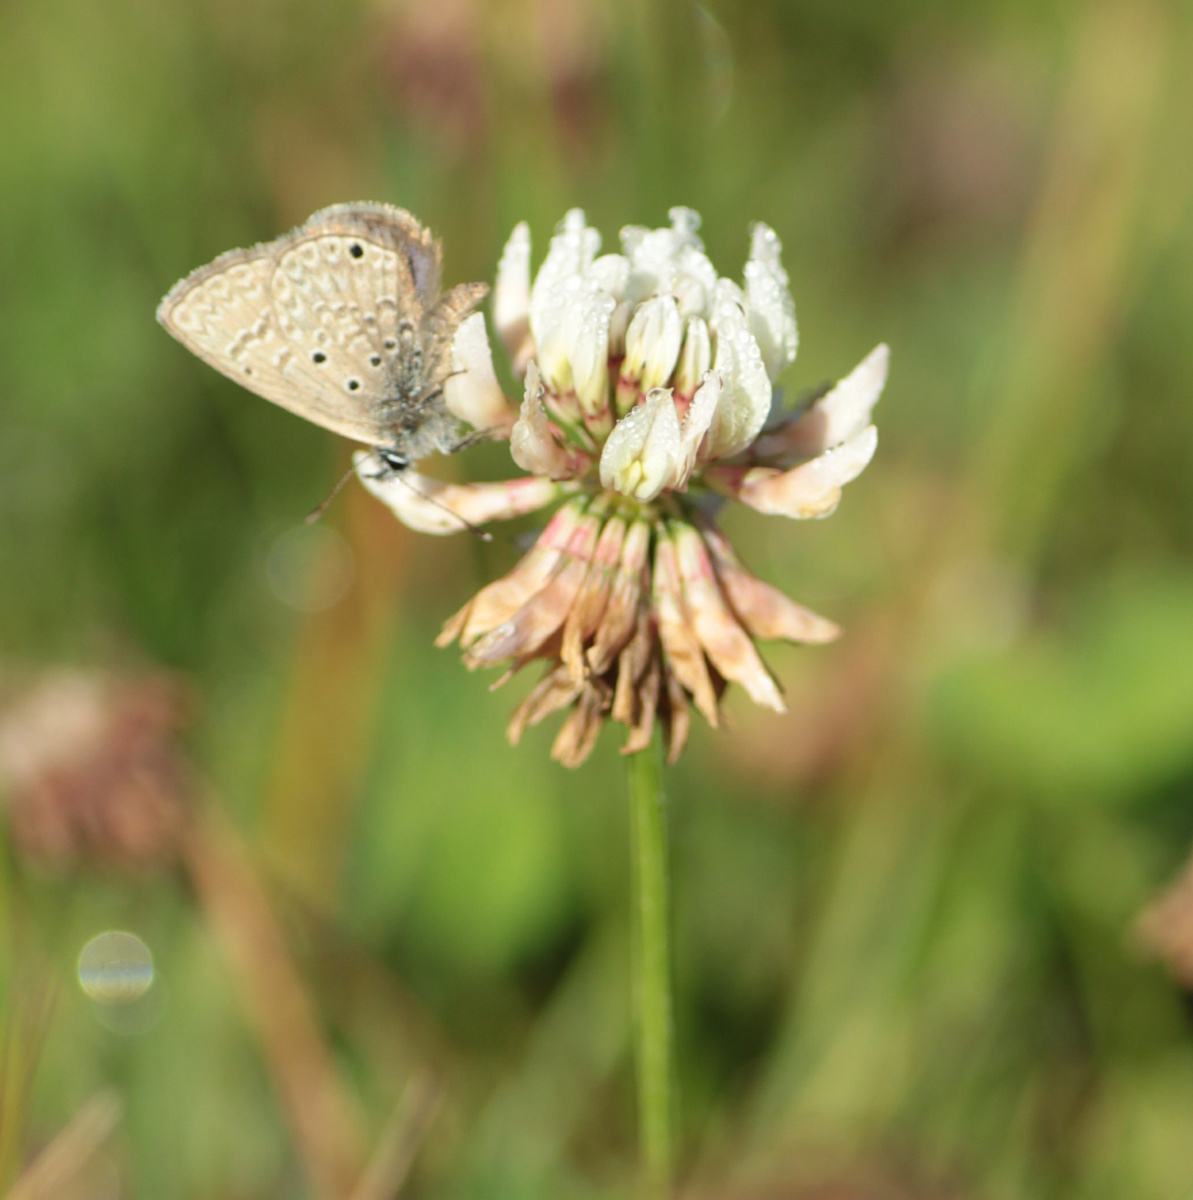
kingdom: Plantae
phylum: Tracheophyta
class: Magnoliopsida
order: Fabales
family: Fabaceae
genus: Trifolium
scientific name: Trifolium repens
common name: White clover
